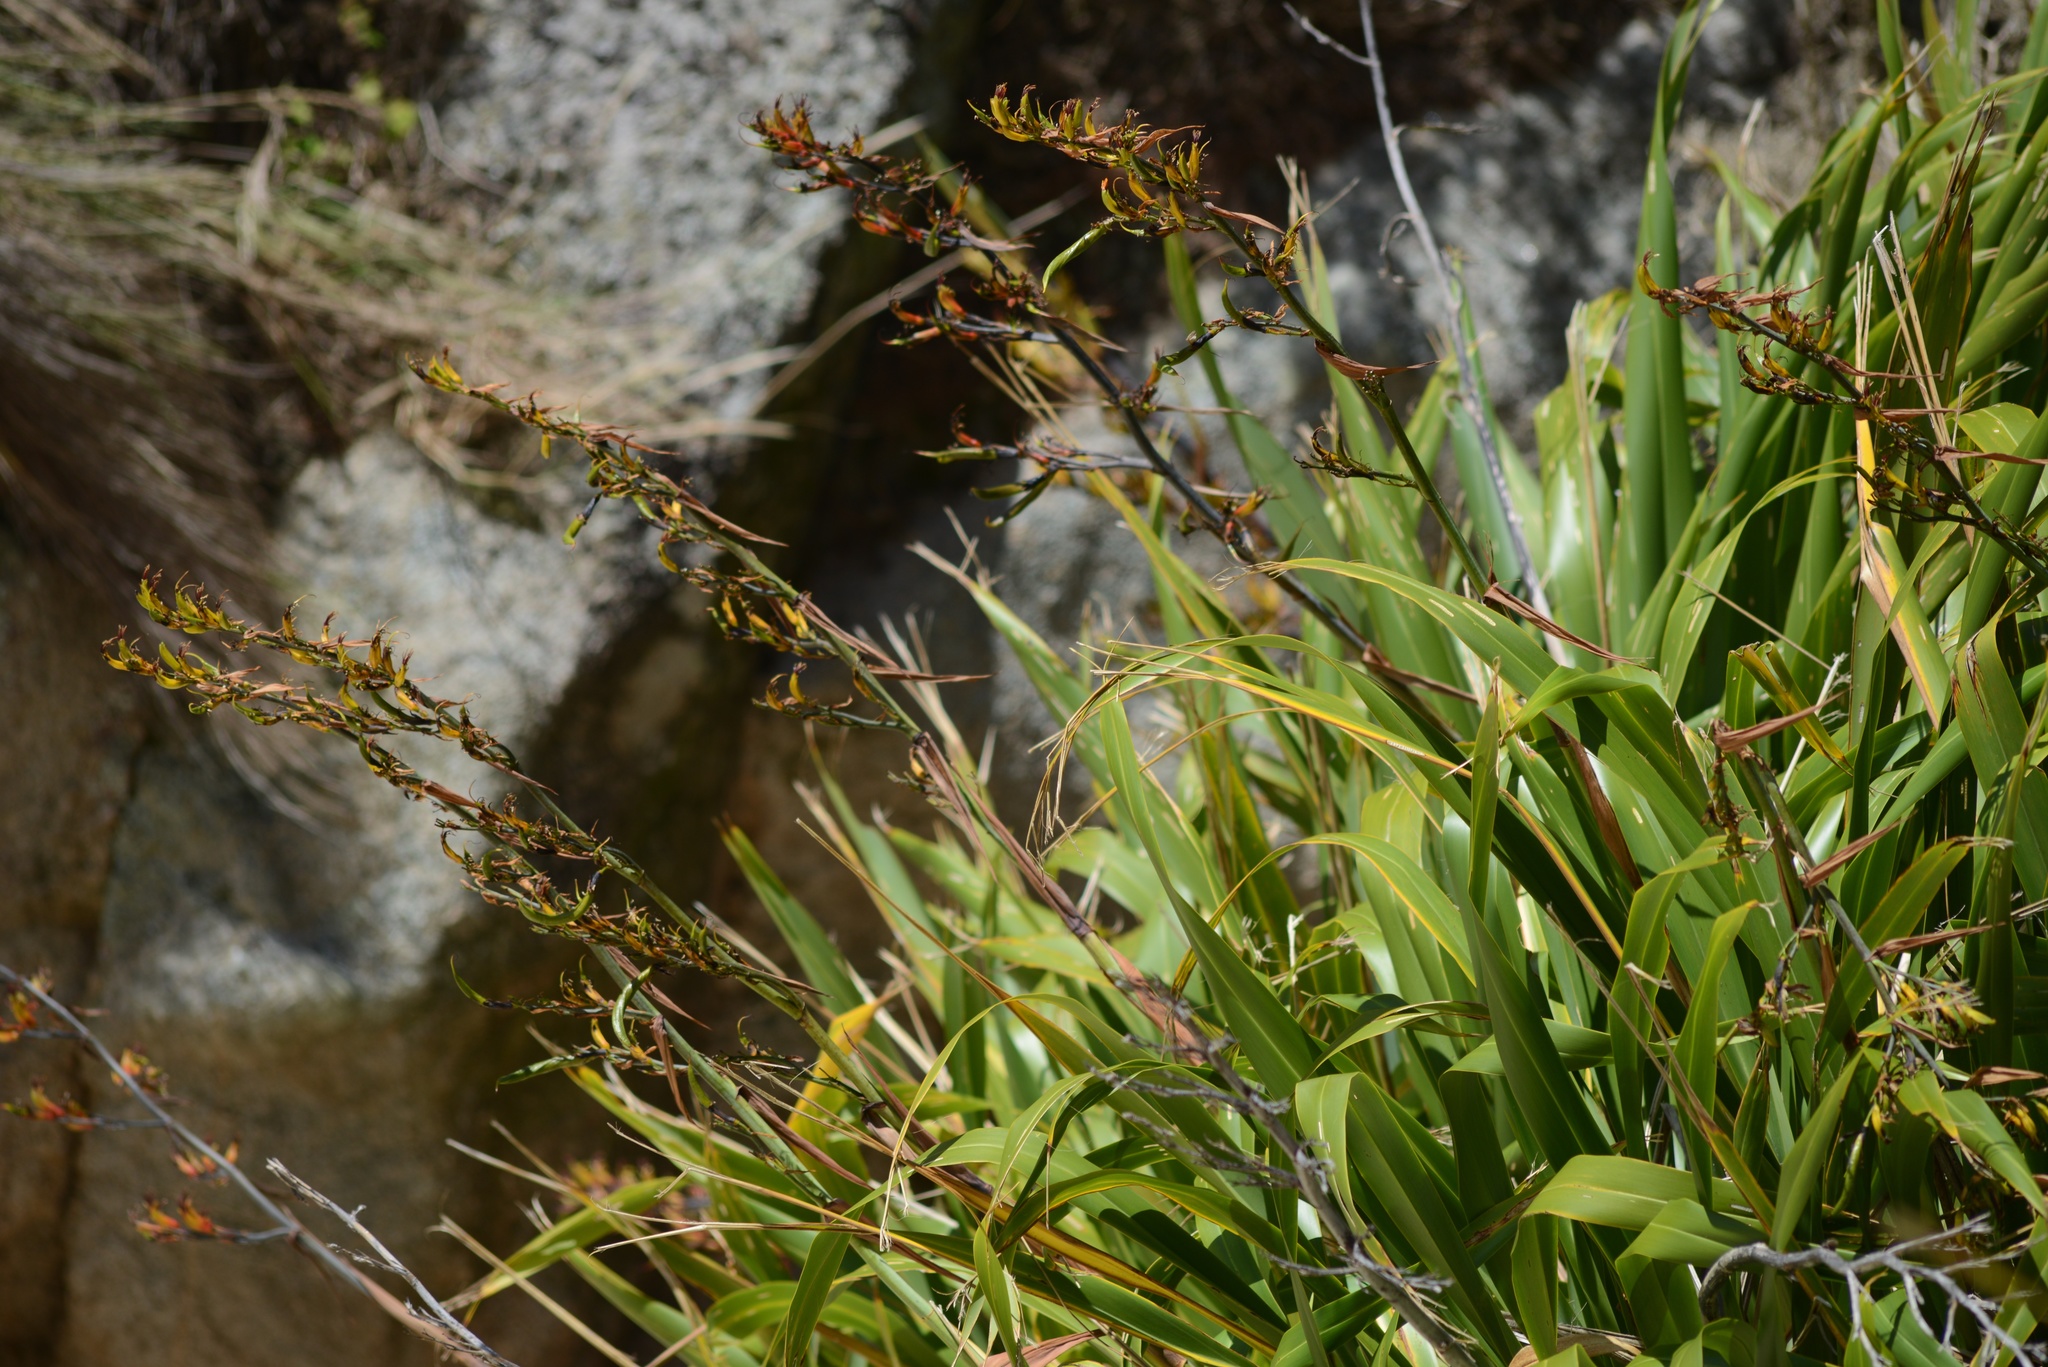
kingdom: Plantae
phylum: Tracheophyta
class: Liliopsida
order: Asparagales
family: Asphodelaceae
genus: Phormium
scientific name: Phormium colensoi
